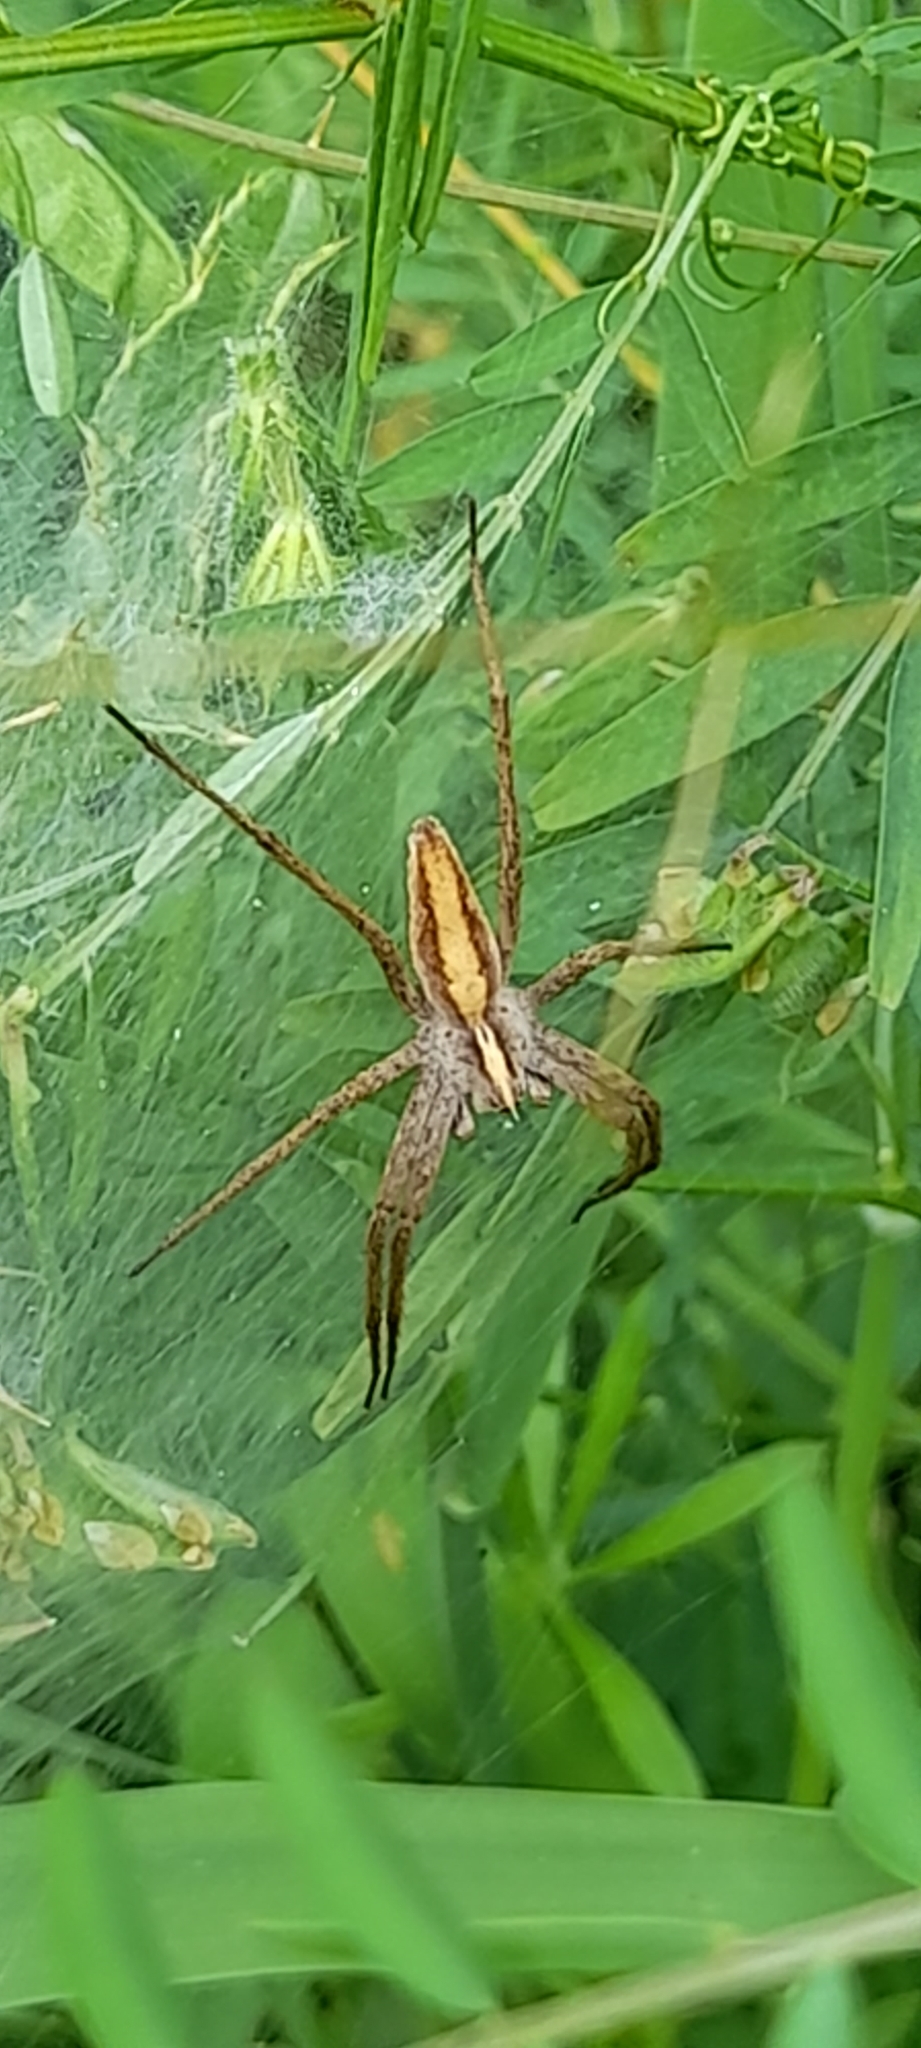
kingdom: Animalia
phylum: Arthropoda
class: Arachnida
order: Araneae
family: Pisauridae
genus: Pisaura
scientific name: Pisaura mirabilis
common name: Tent spider
